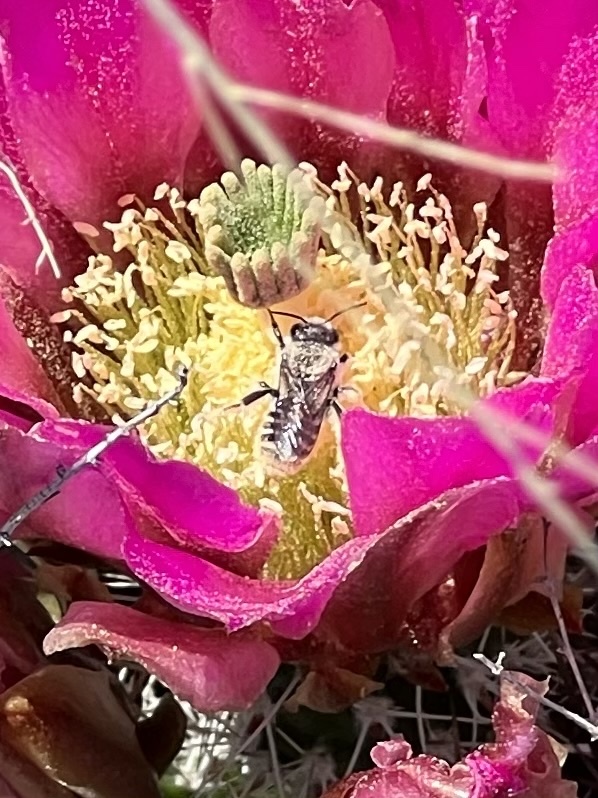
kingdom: Animalia
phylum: Arthropoda
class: Insecta
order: Hymenoptera
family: Megachilidae
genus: Lithurgopsis
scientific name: Lithurgopsis apicalis
